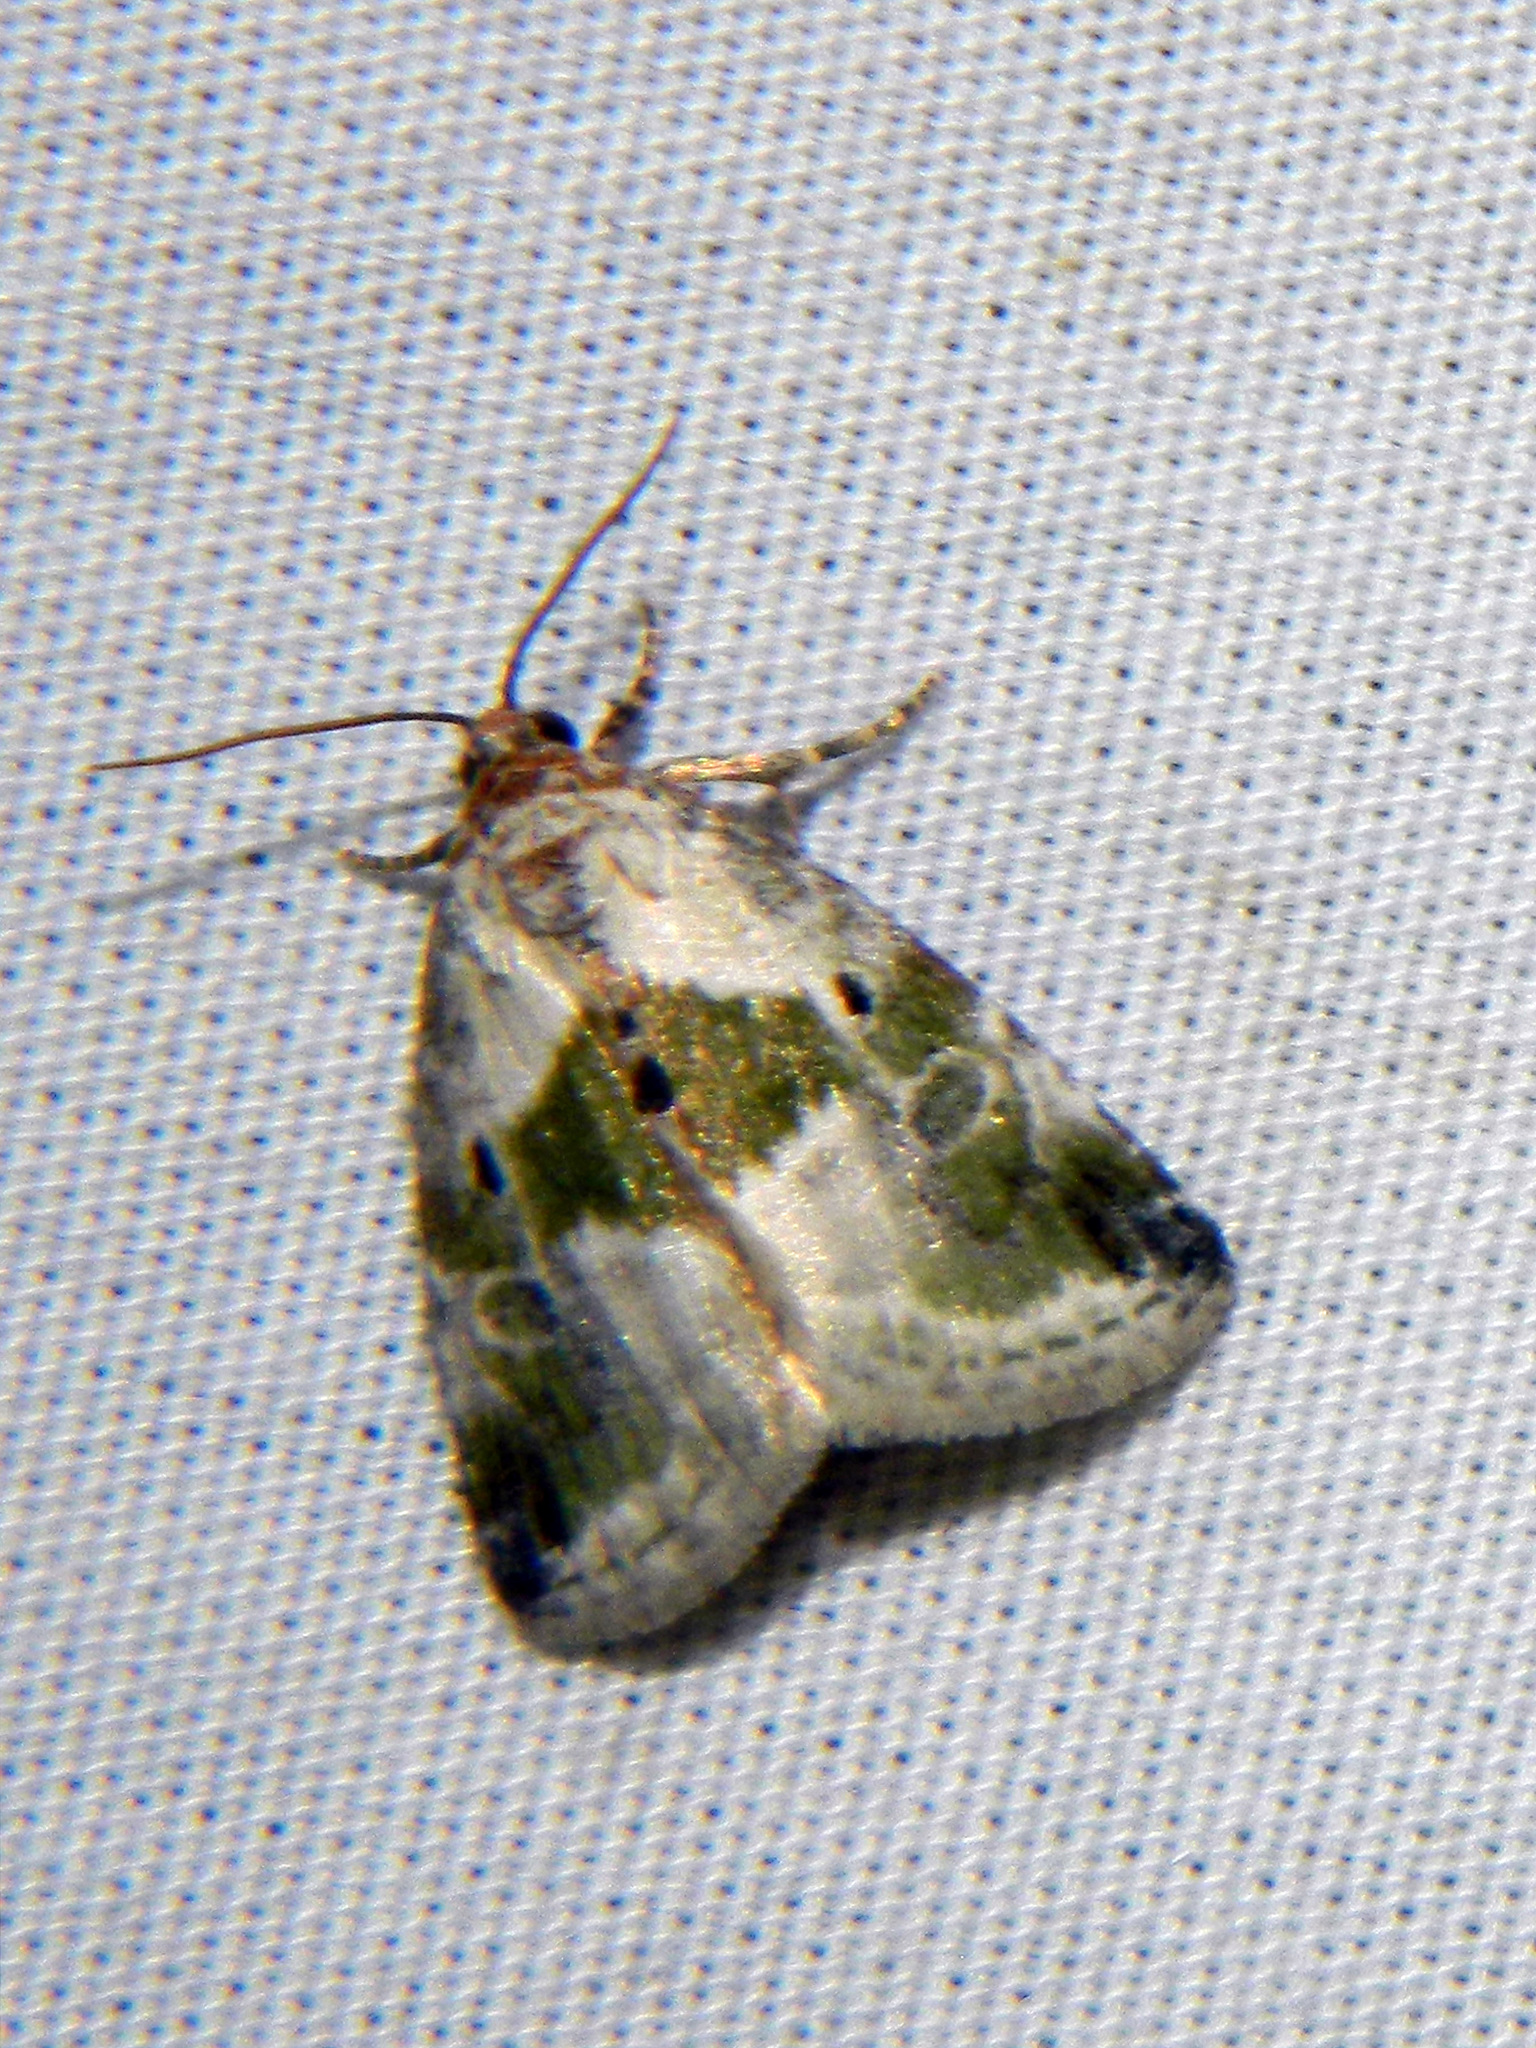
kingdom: Animalia
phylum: Arthropoda
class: Insecta
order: Lepidoptera
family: Noctuidae
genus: Maliattha
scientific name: Maliattha synochitis
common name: Black-dotted glyph
